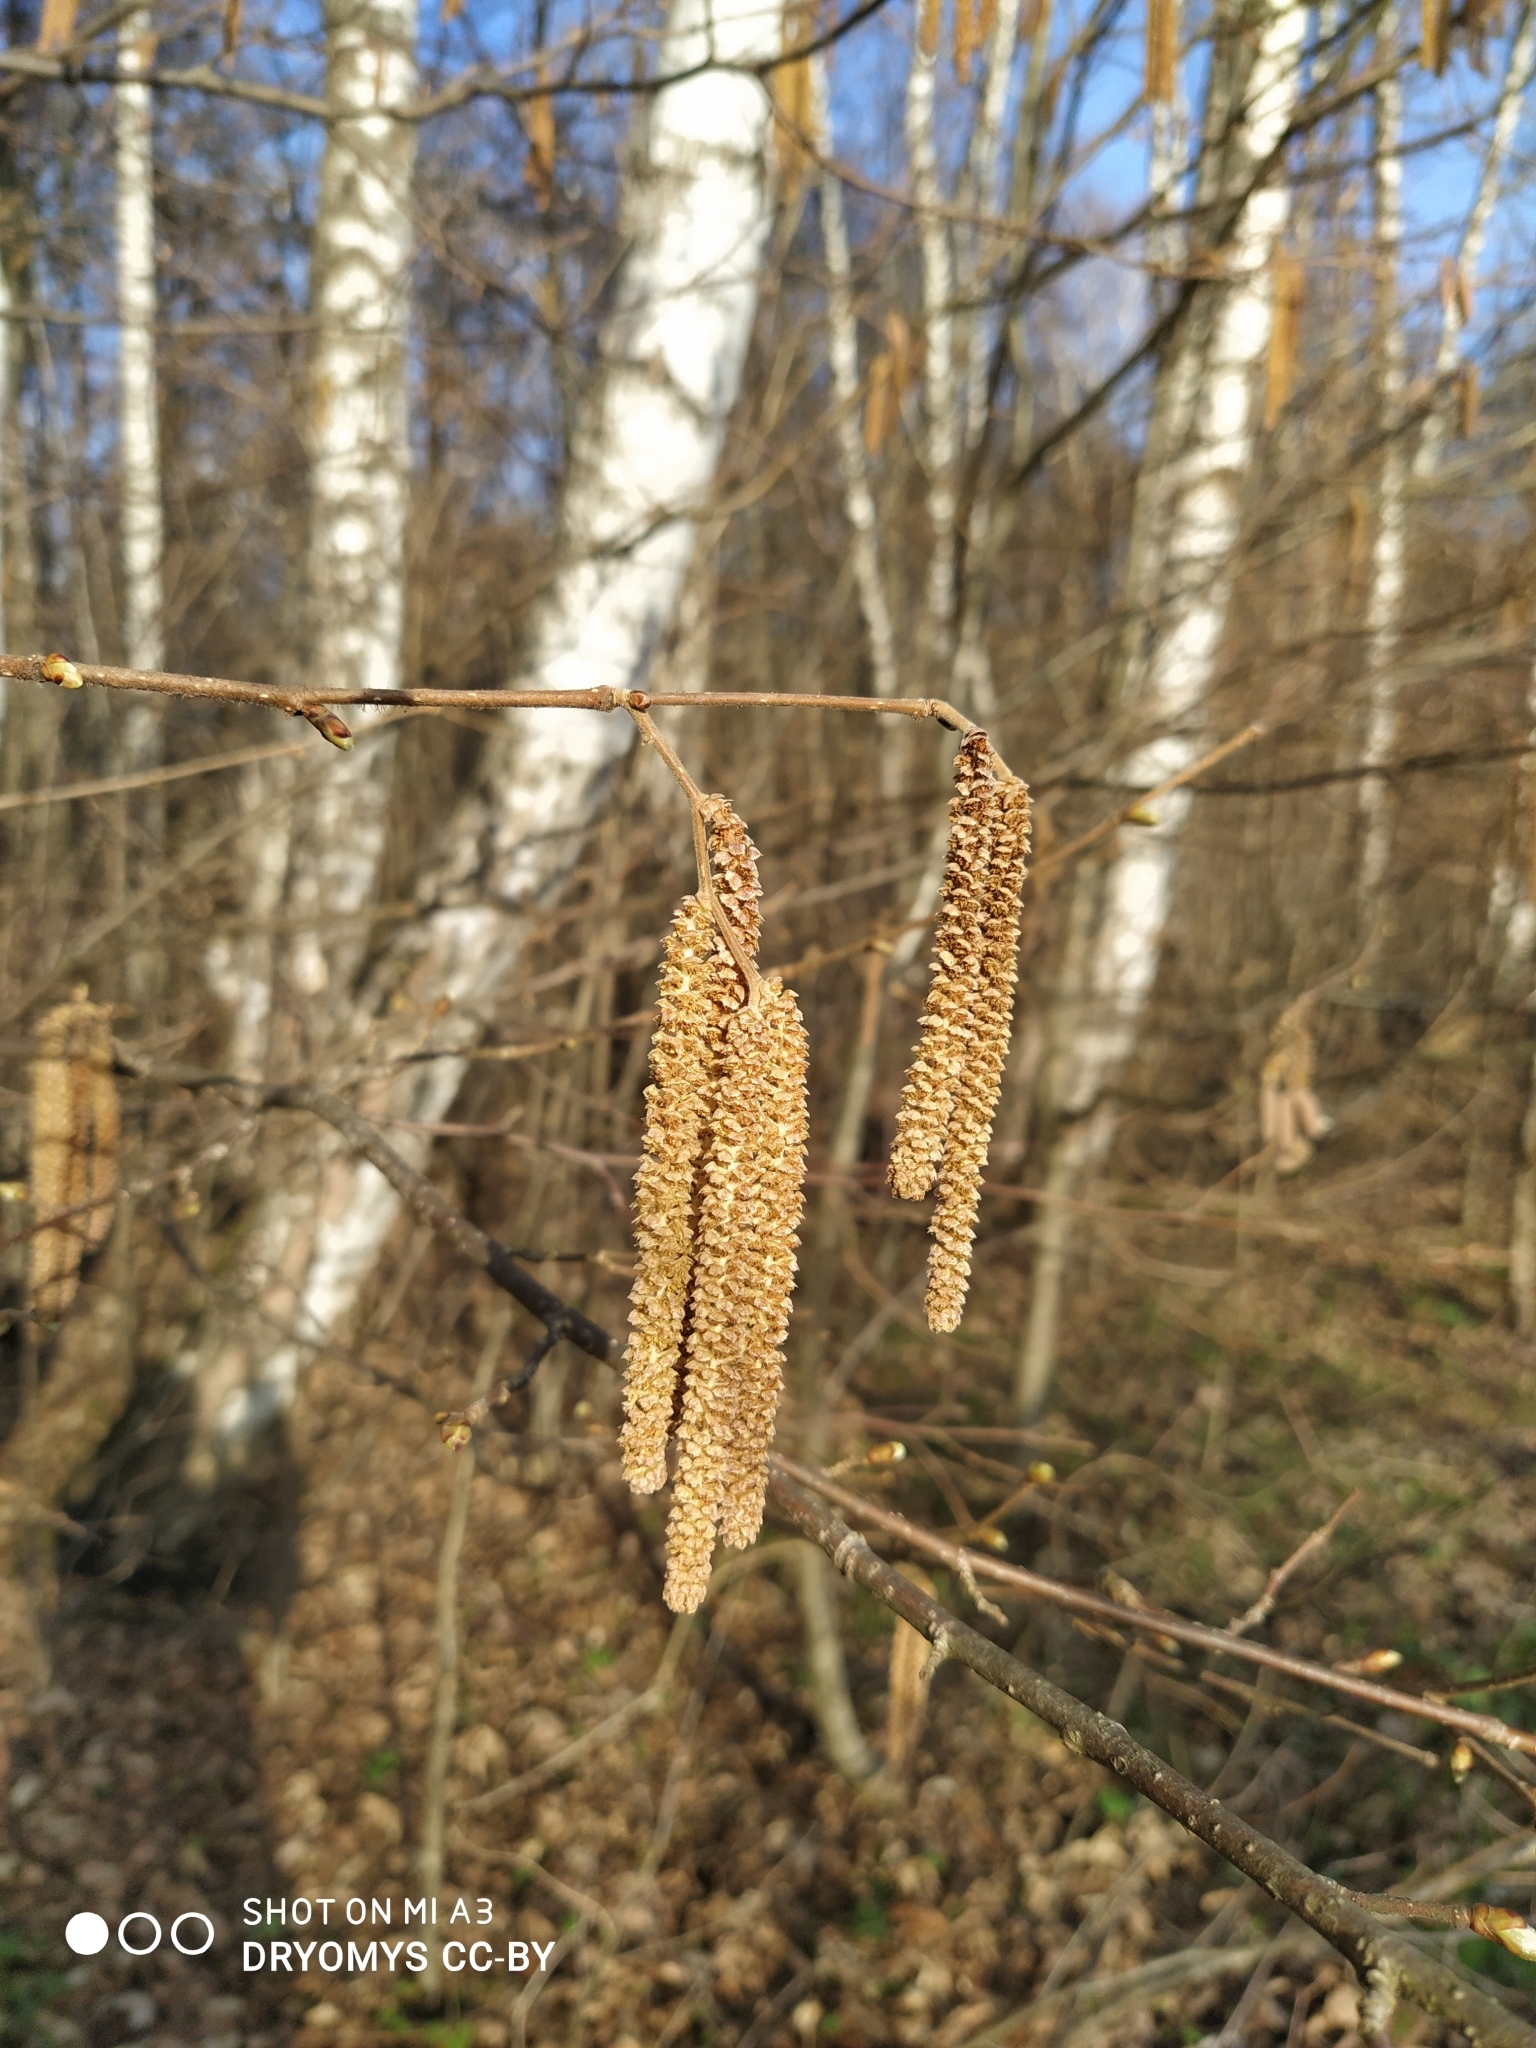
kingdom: Plantae
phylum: Tracheophyta
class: Magnoliopsida
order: Fagales
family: Betulaceae
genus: Corylus
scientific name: Corylus avellana
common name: European hazel
